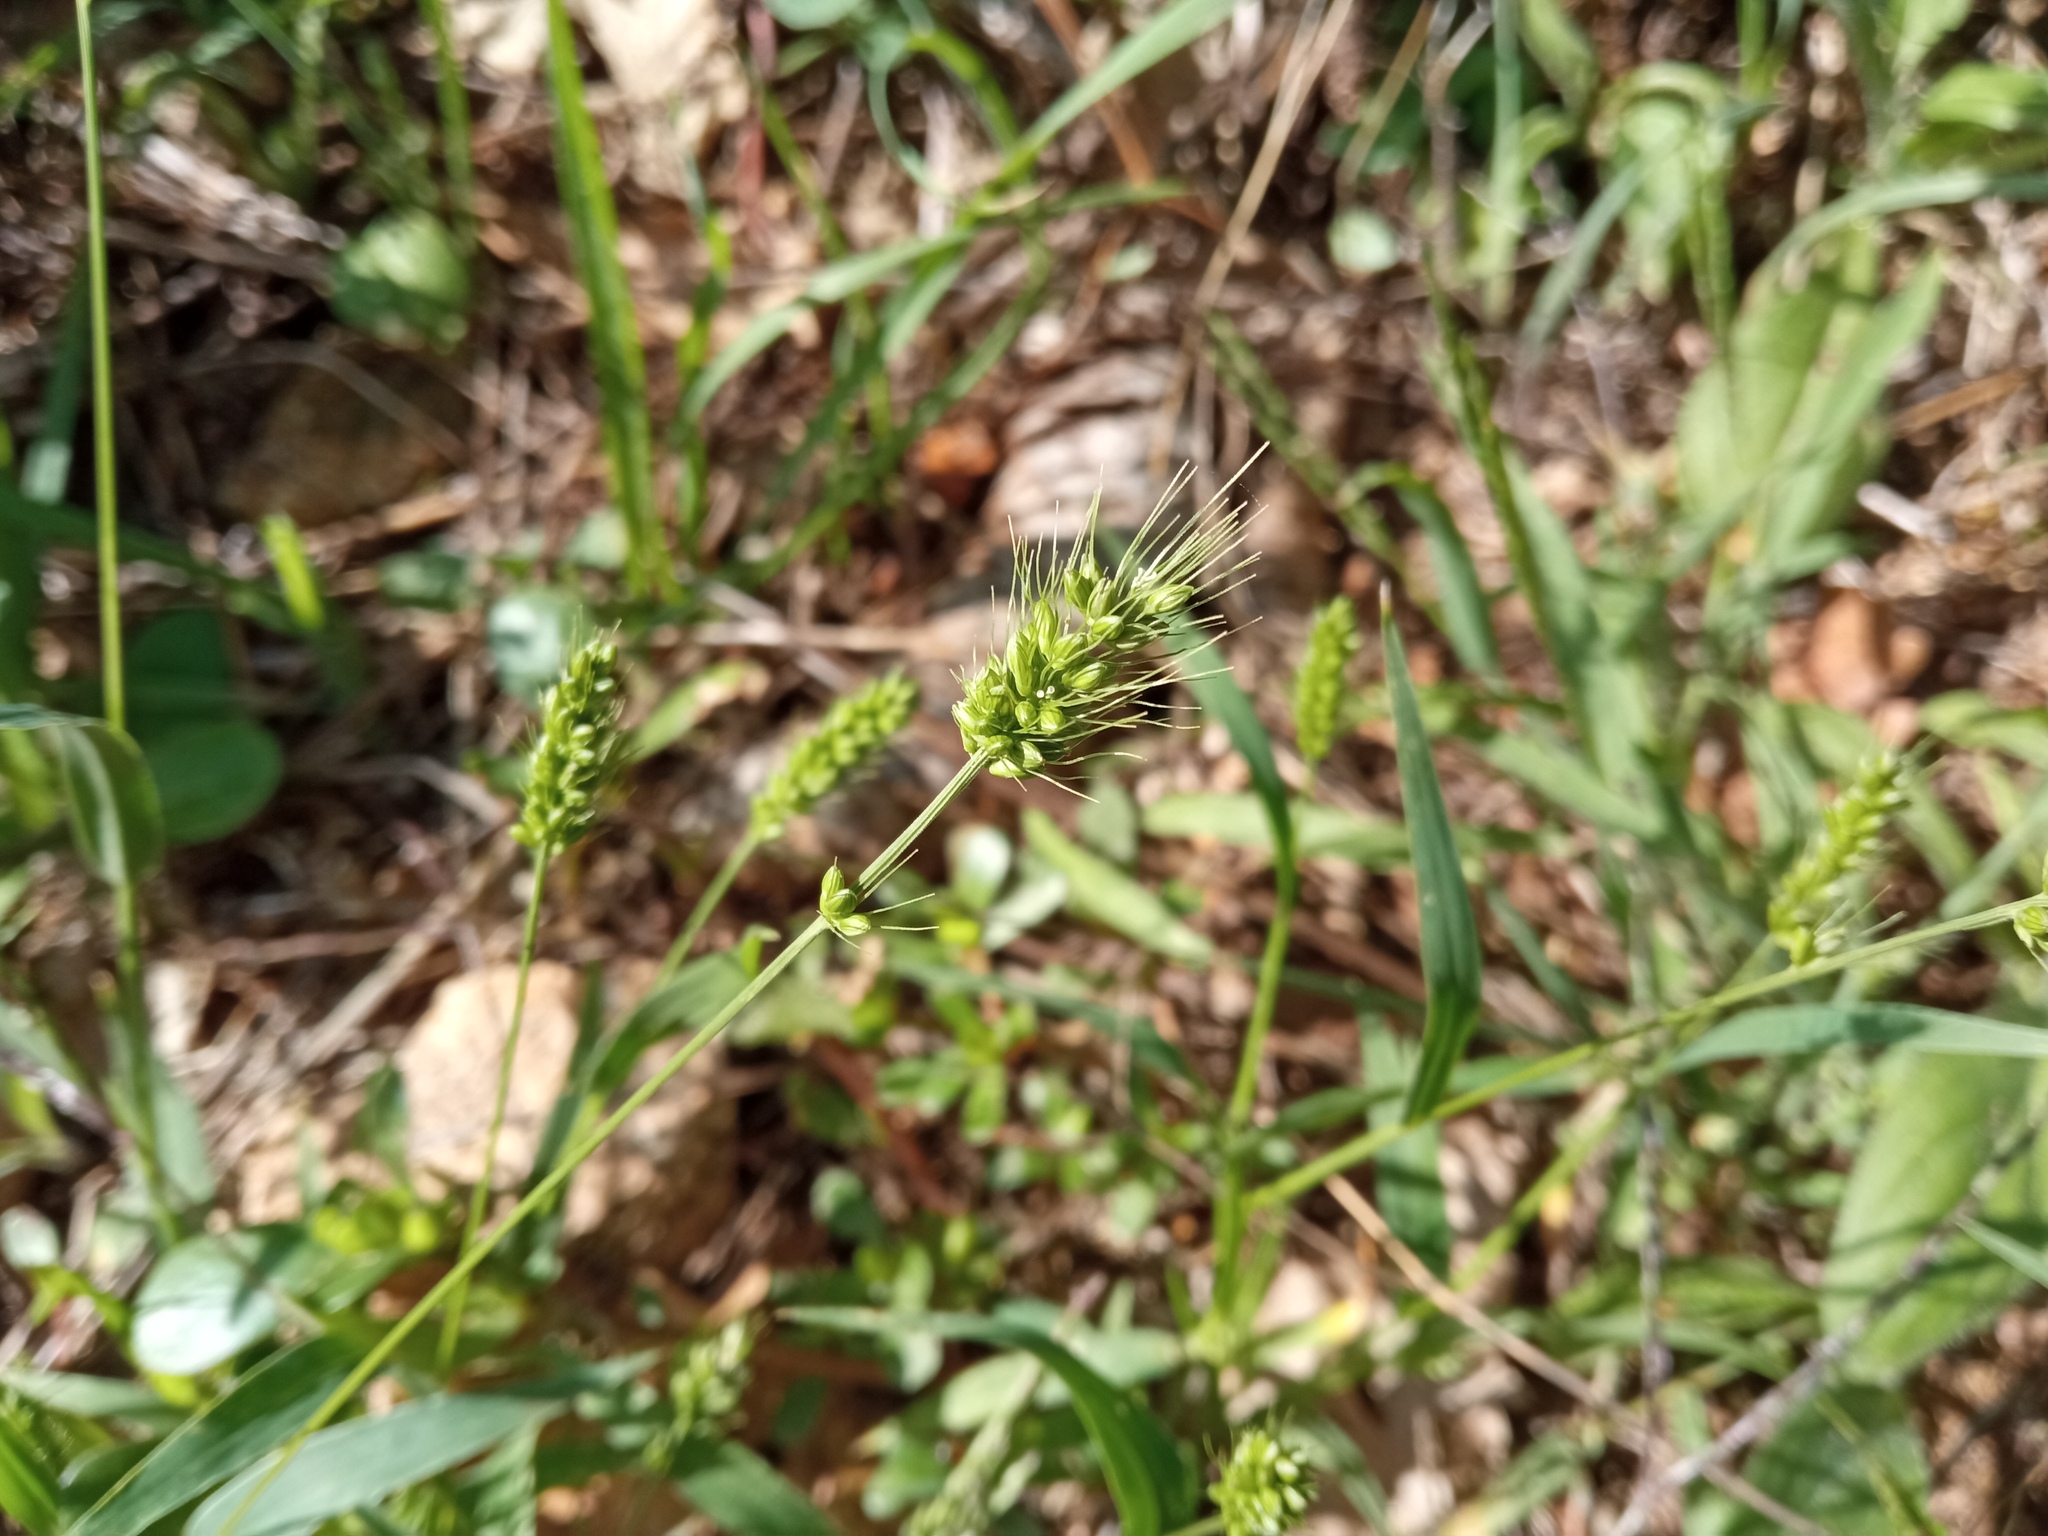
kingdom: Plantae
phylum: Tracheophyta
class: Liliopsida
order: Poales
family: Poaceae
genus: Setaria
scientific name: Setaria viridis
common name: Green bristlegrass
